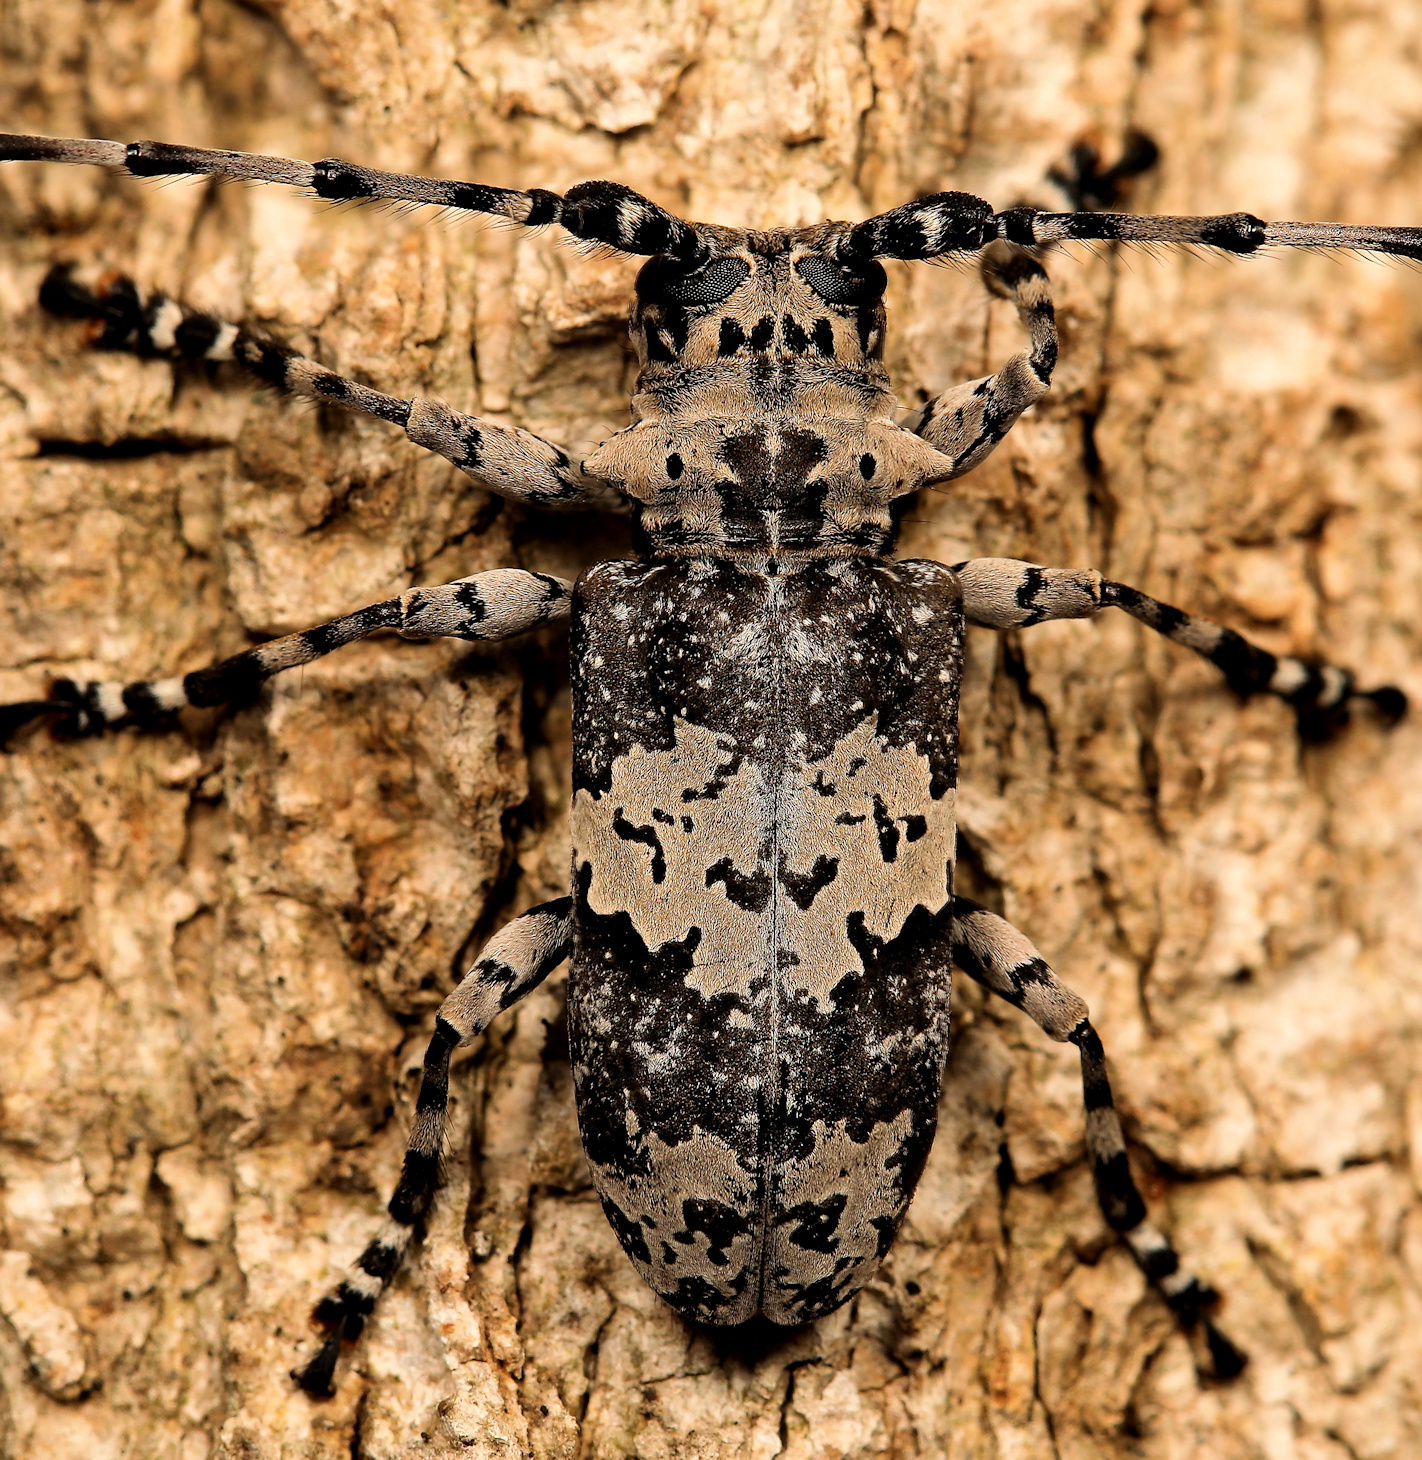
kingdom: Animalia
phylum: Arthropoda
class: Insecta
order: Coleoptera
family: Cerambycidae
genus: Lasiopezus
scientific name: Lasiopezus nigromaculatus
